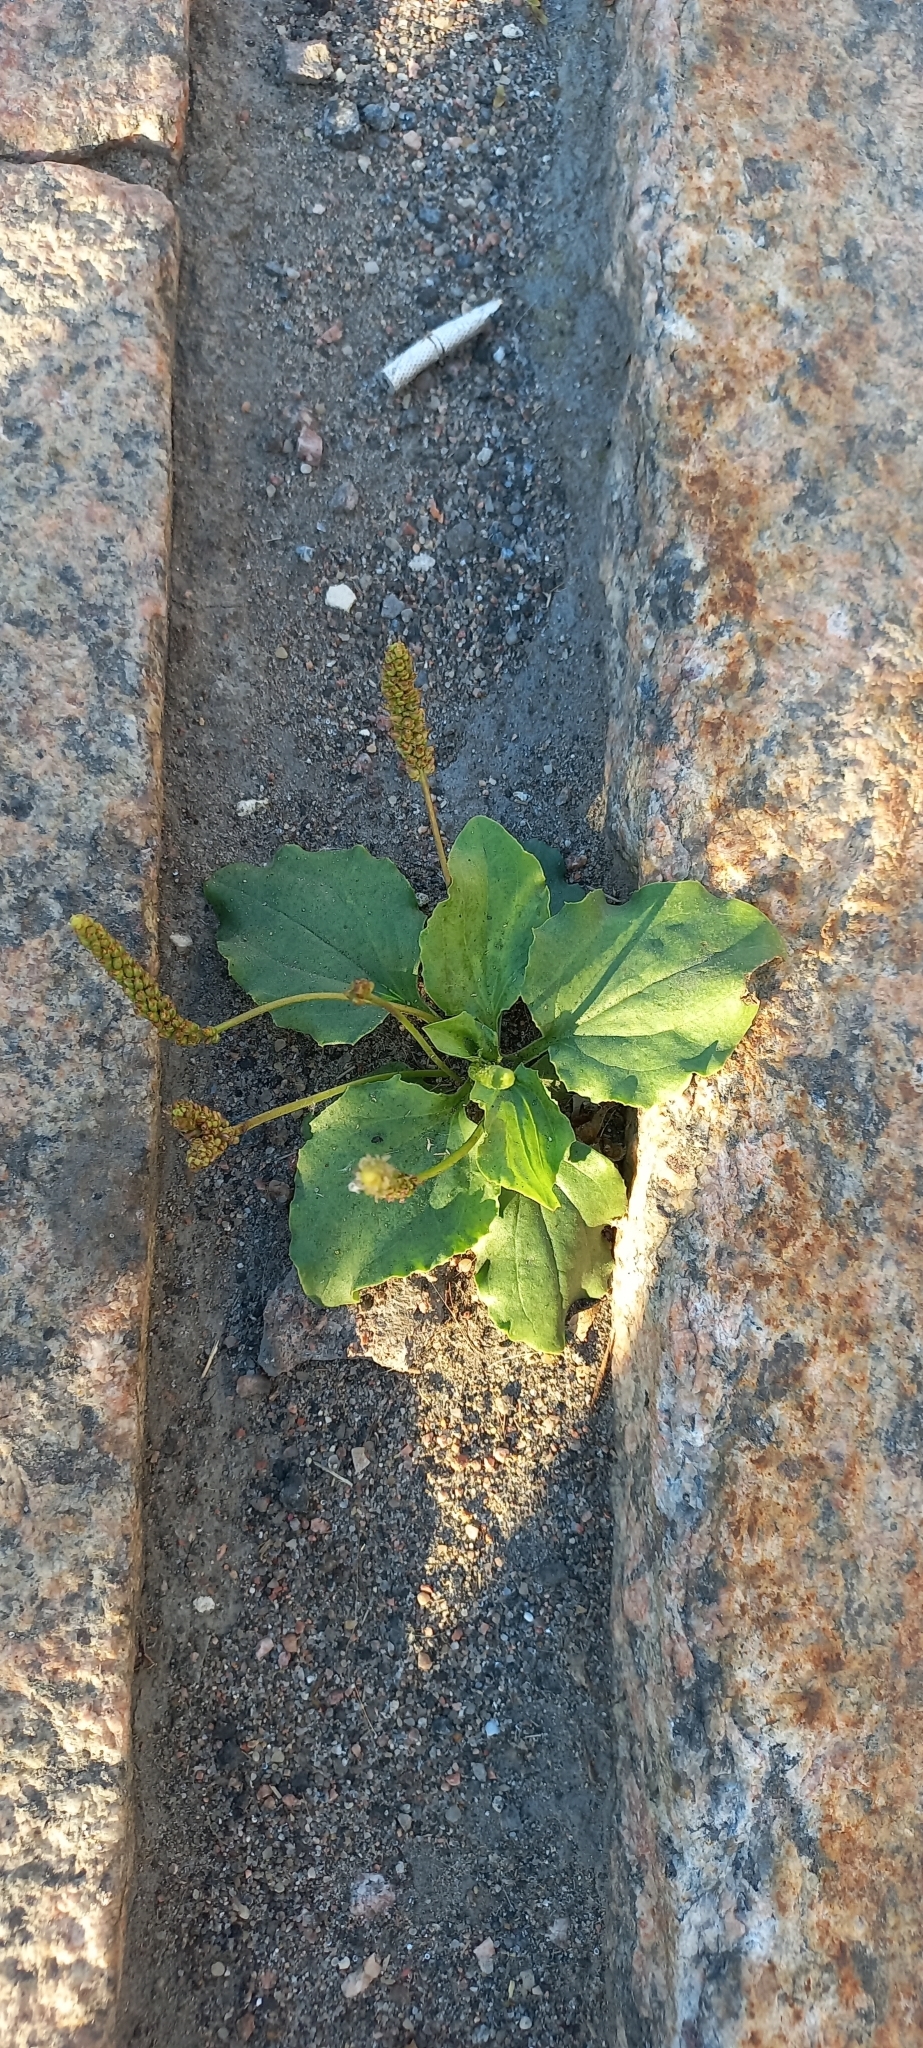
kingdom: Plantae
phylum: Tracheophyta
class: Magnoliopsida
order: Lamiales
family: Plantaginaceae
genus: Plantago
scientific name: Plantago major
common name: Common plantain
